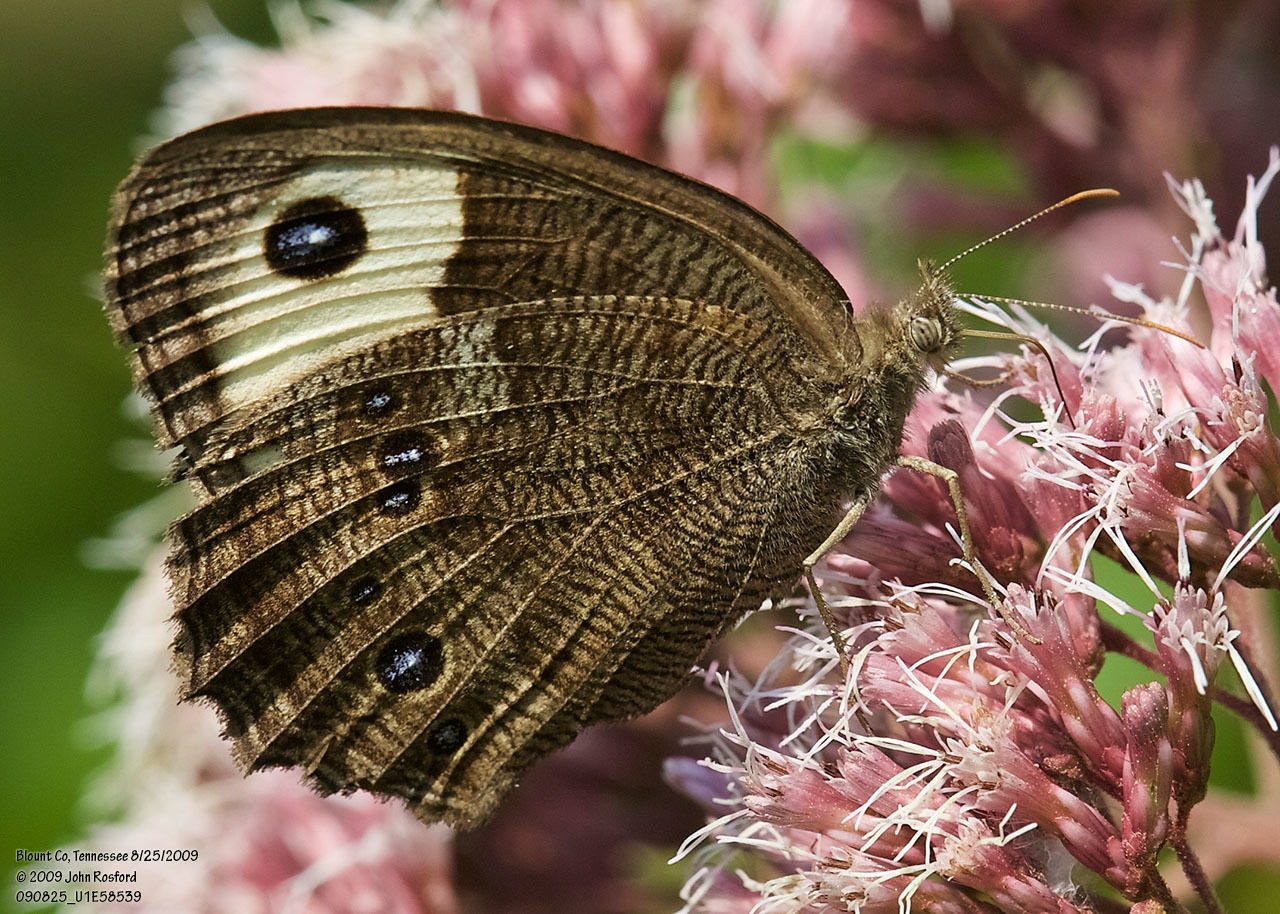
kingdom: Animalia
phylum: Arthropoda
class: Insecta
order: Lepidoptera
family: Nymphalidae
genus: Cercyonis
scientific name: Cercyonis pegala
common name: Common wood-nymph
